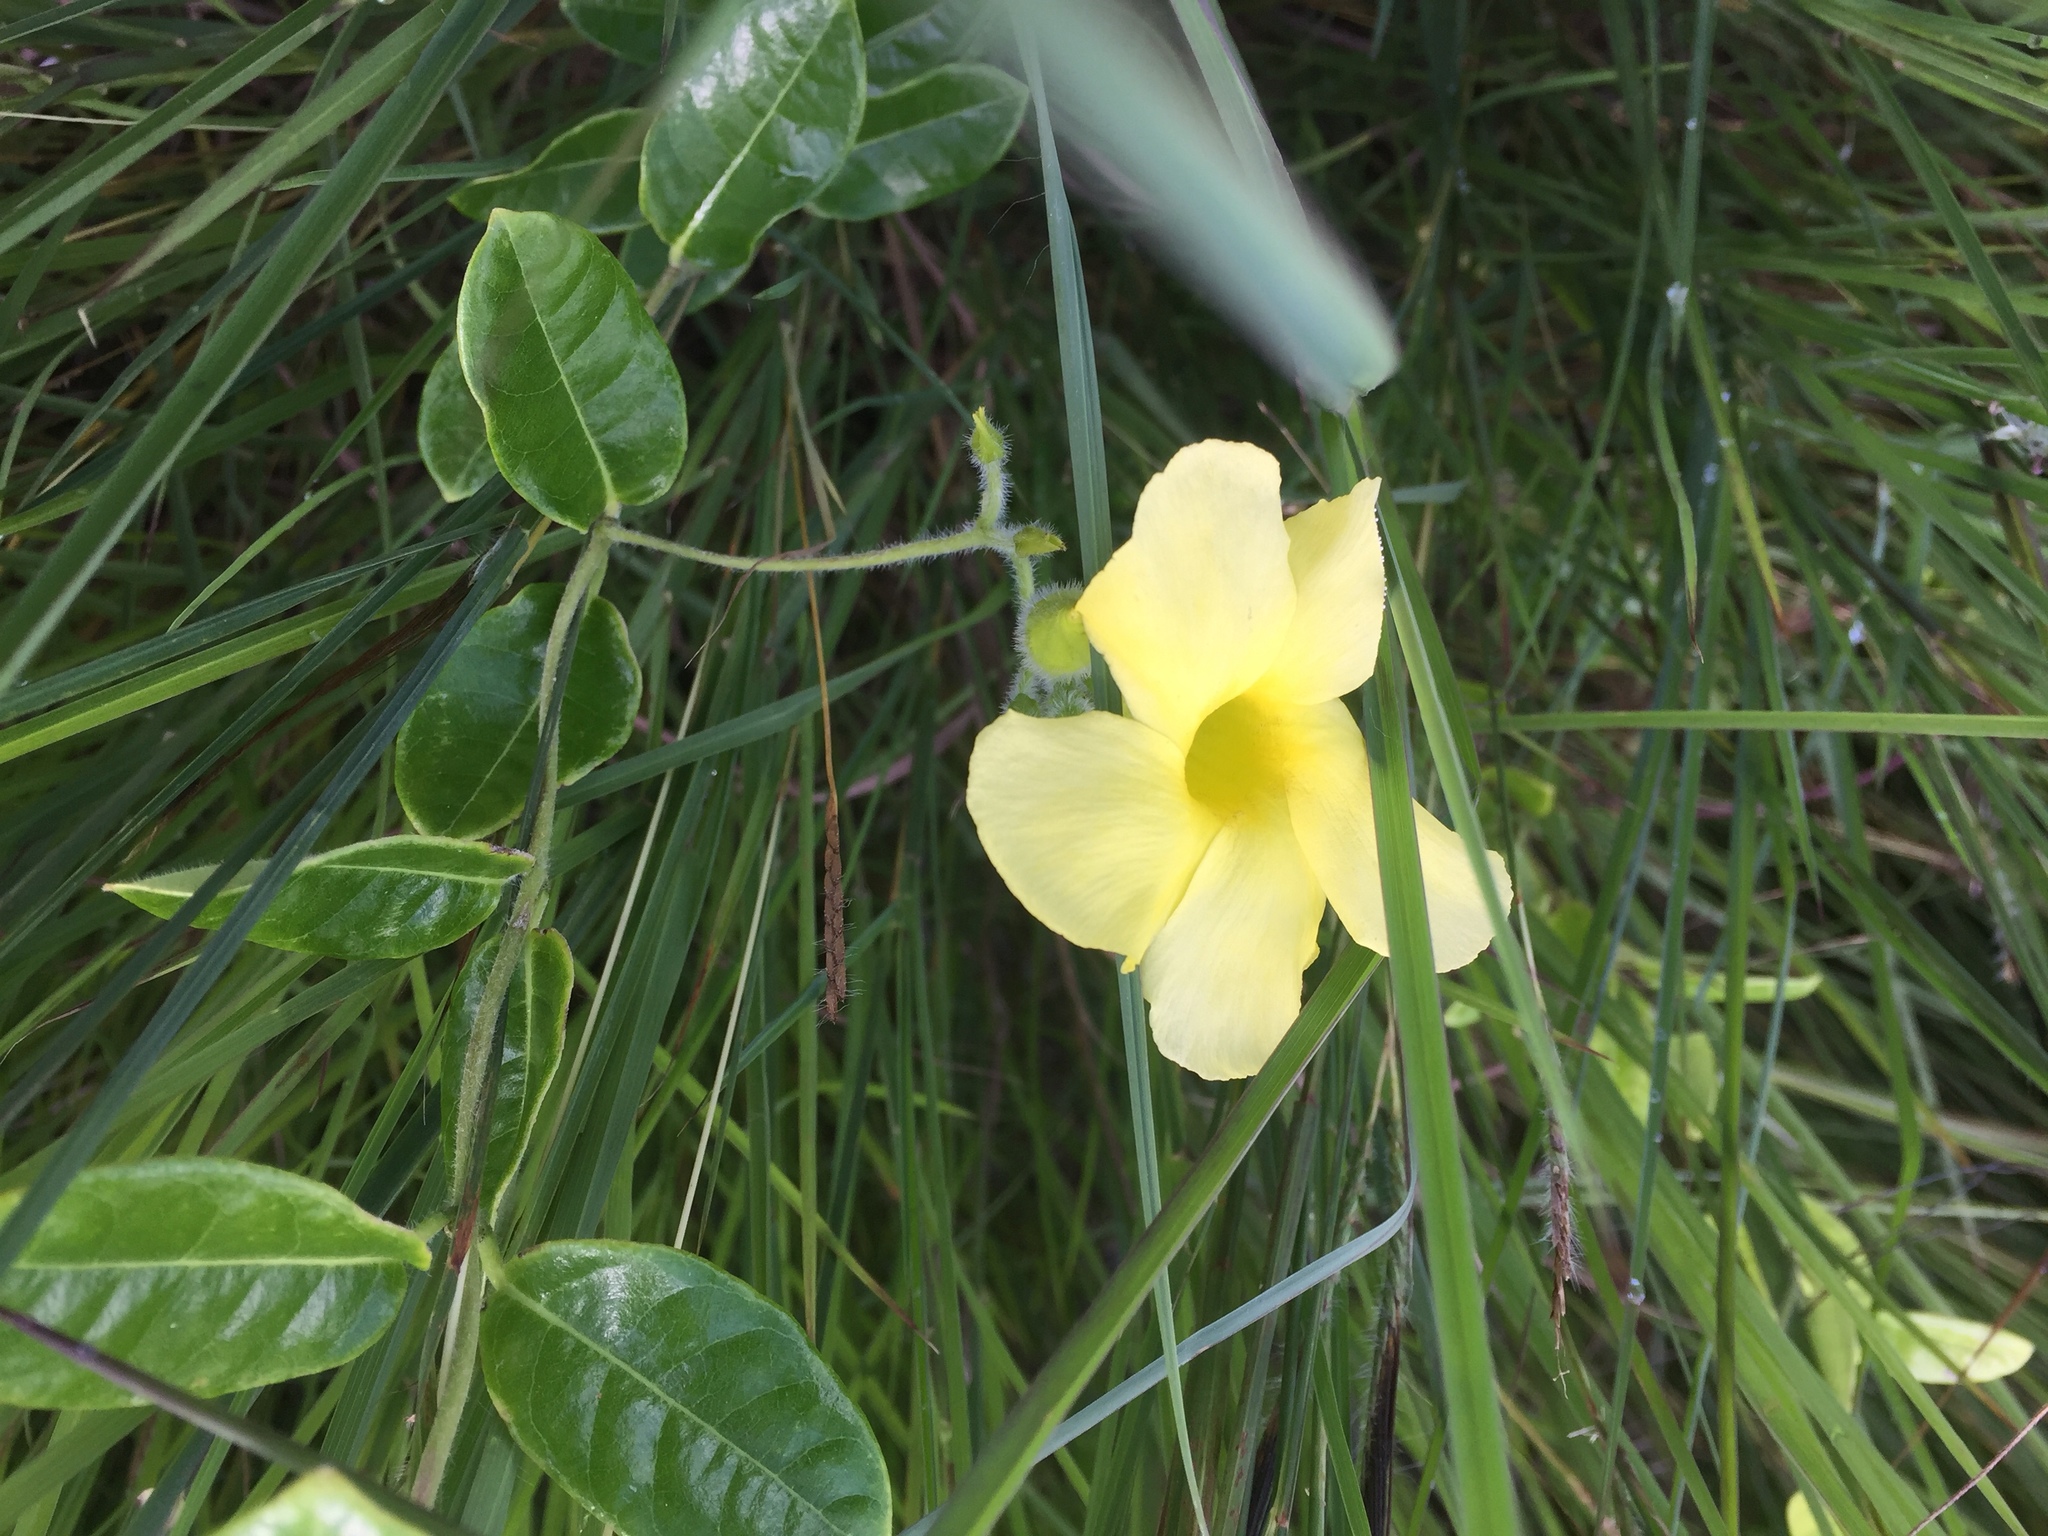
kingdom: Plantae
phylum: Tracheophyta
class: Magnoliopsida
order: Gentianales
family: Apocynaceae
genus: Pentalinon
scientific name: Pentalinon luteum
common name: Licebush
